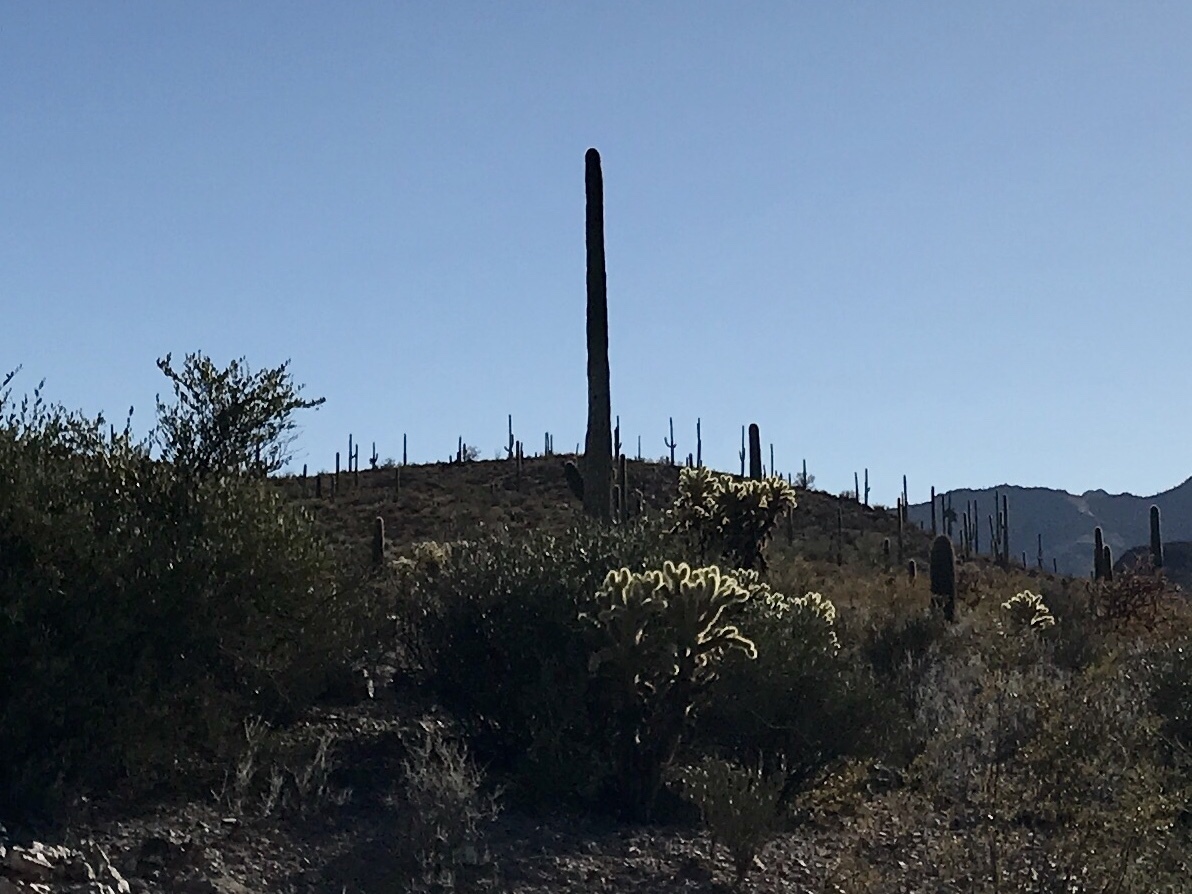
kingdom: Plantae
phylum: Tracheophyta
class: Magnoliopsida
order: Caryophyllales
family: Cactaceae
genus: Carnegiea
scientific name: Carnegiea gigantea
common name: Saguaro
